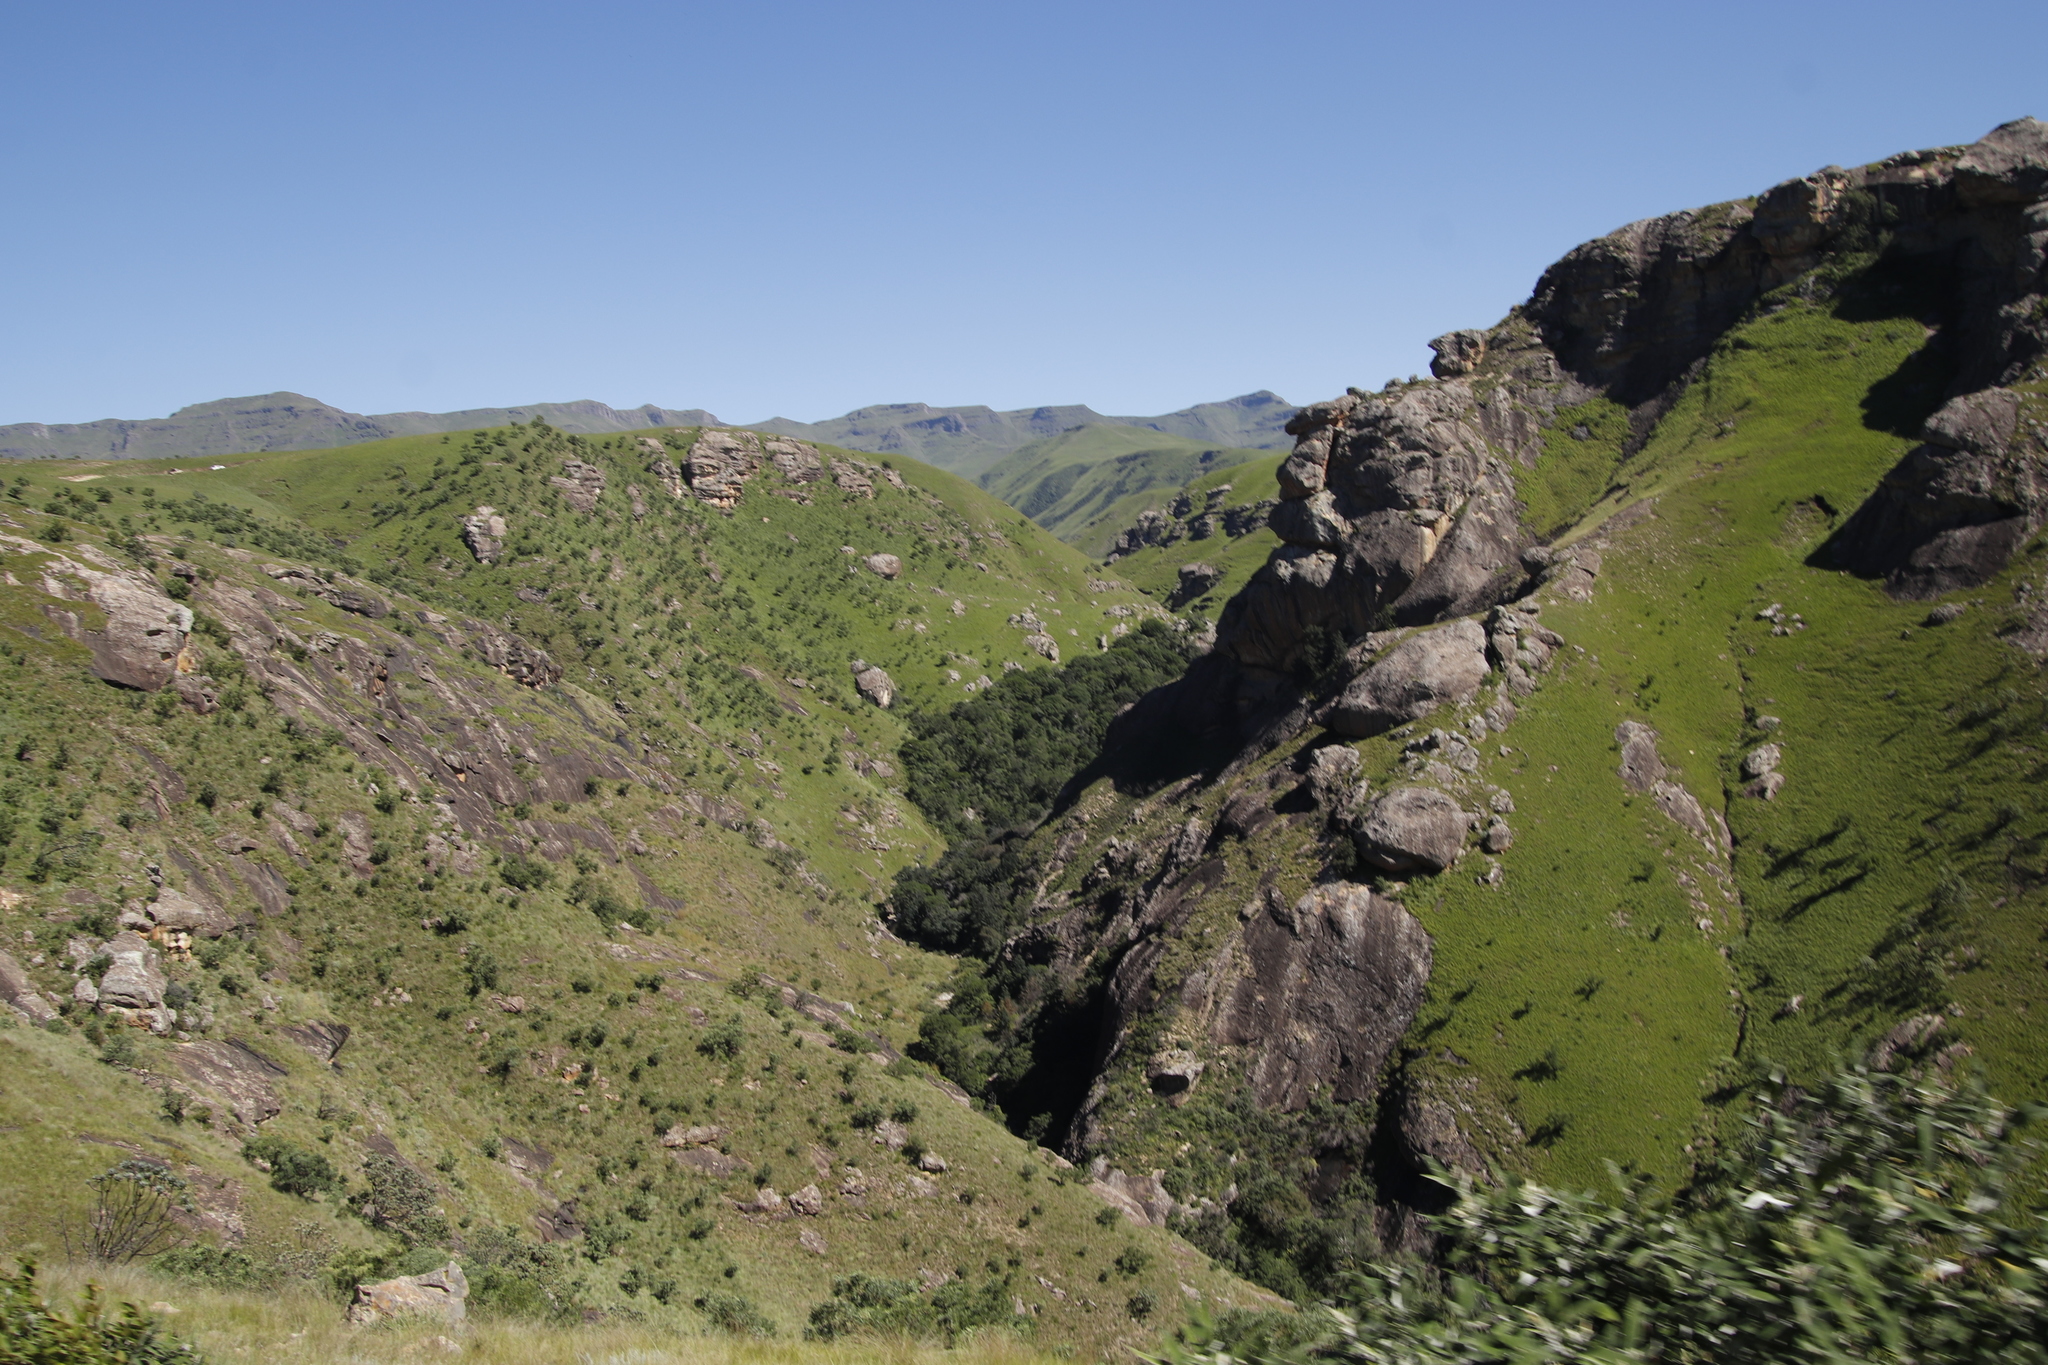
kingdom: Plantae
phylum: Tracheophyta
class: Magnoliopsida
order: Proteales
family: Proteaceae
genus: Protea
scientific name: Protea caffra
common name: Common sugarbush
